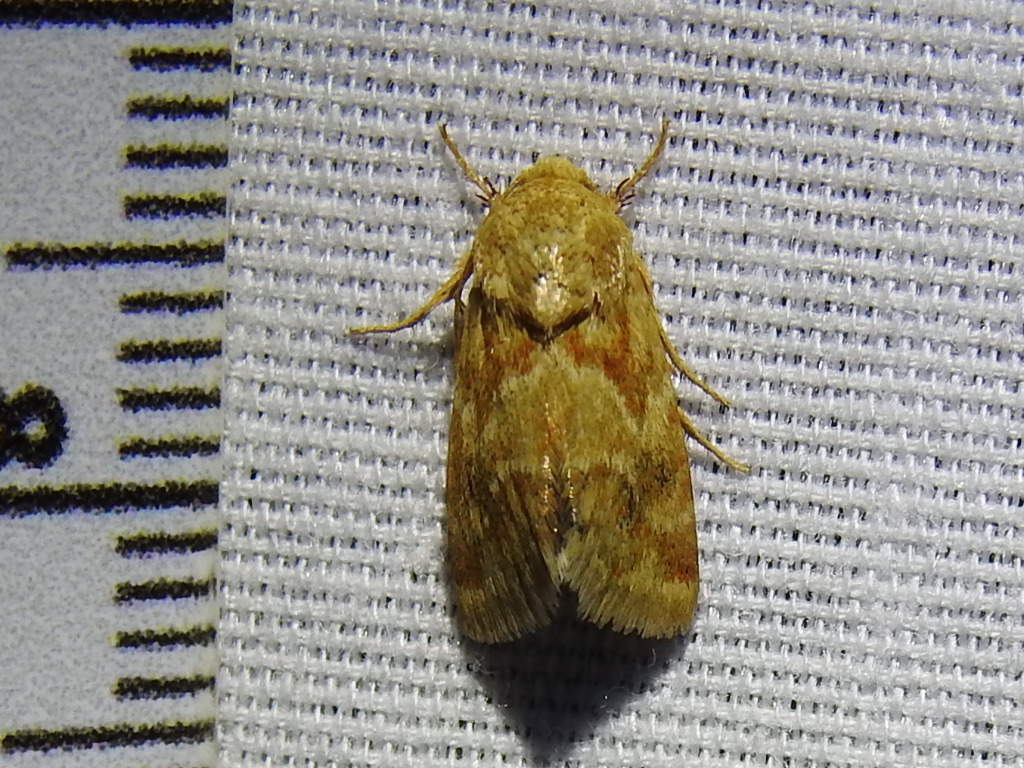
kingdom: Animalia
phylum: Arthropoda
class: Insecta
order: Lepidoptera
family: Noctuidae
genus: Schinia
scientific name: Schinia siren
